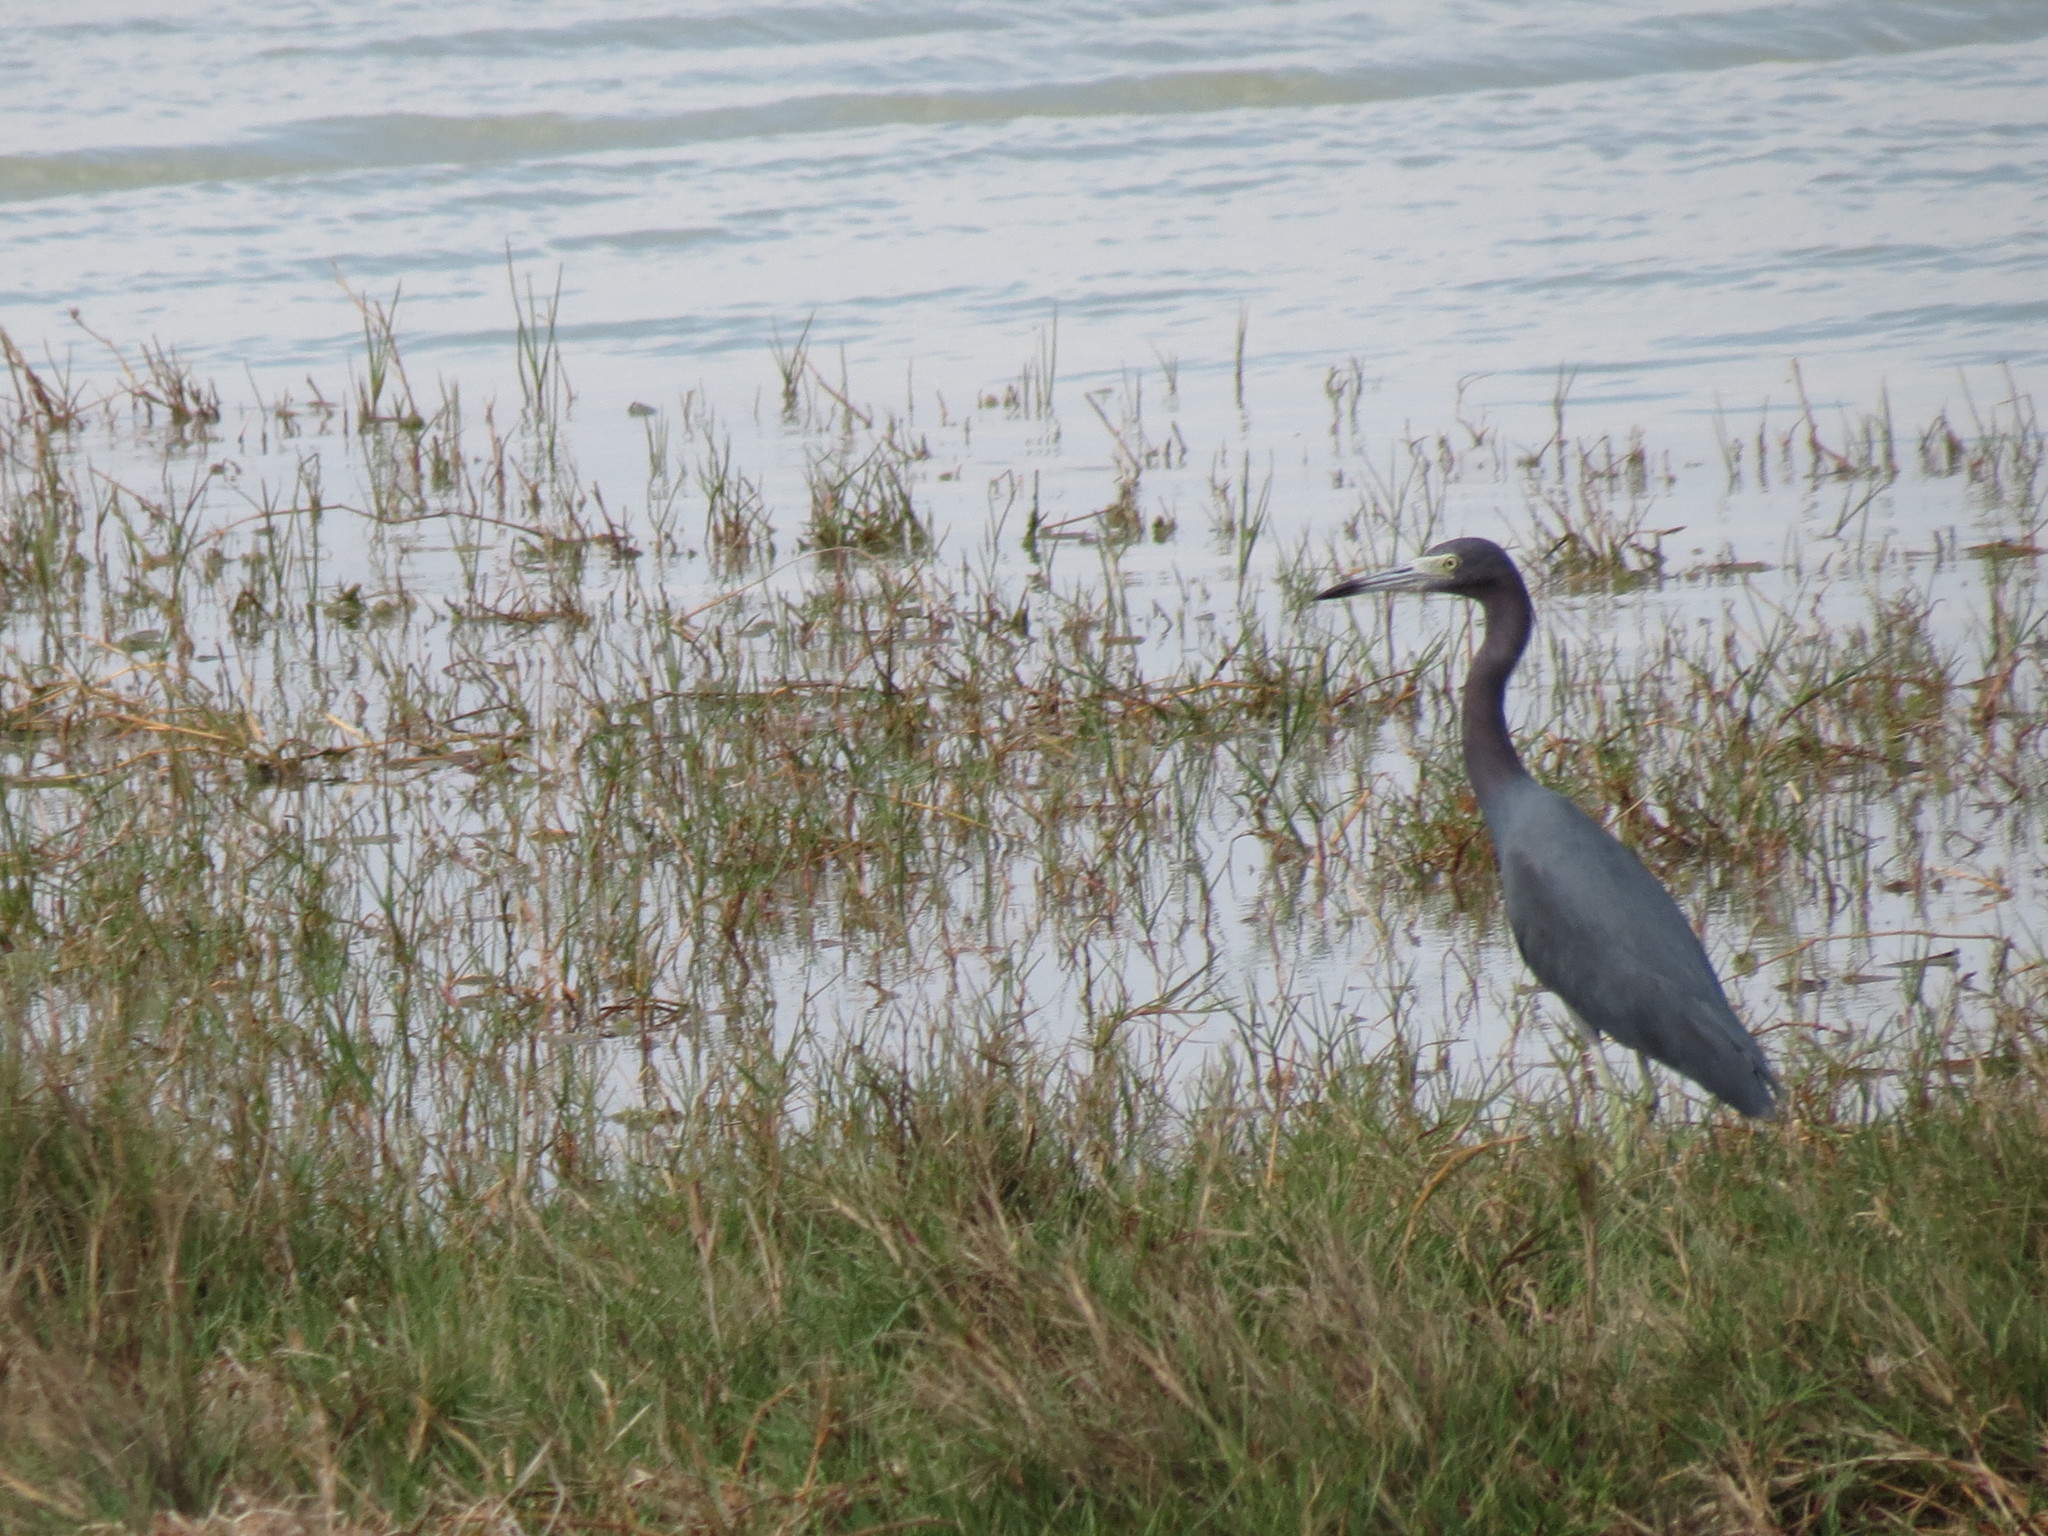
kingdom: Animalia
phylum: Chordata
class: Aves
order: Pelecaniformes
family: Ardeidae
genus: Egretta
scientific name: Egretta caerulea
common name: Little blue heron
